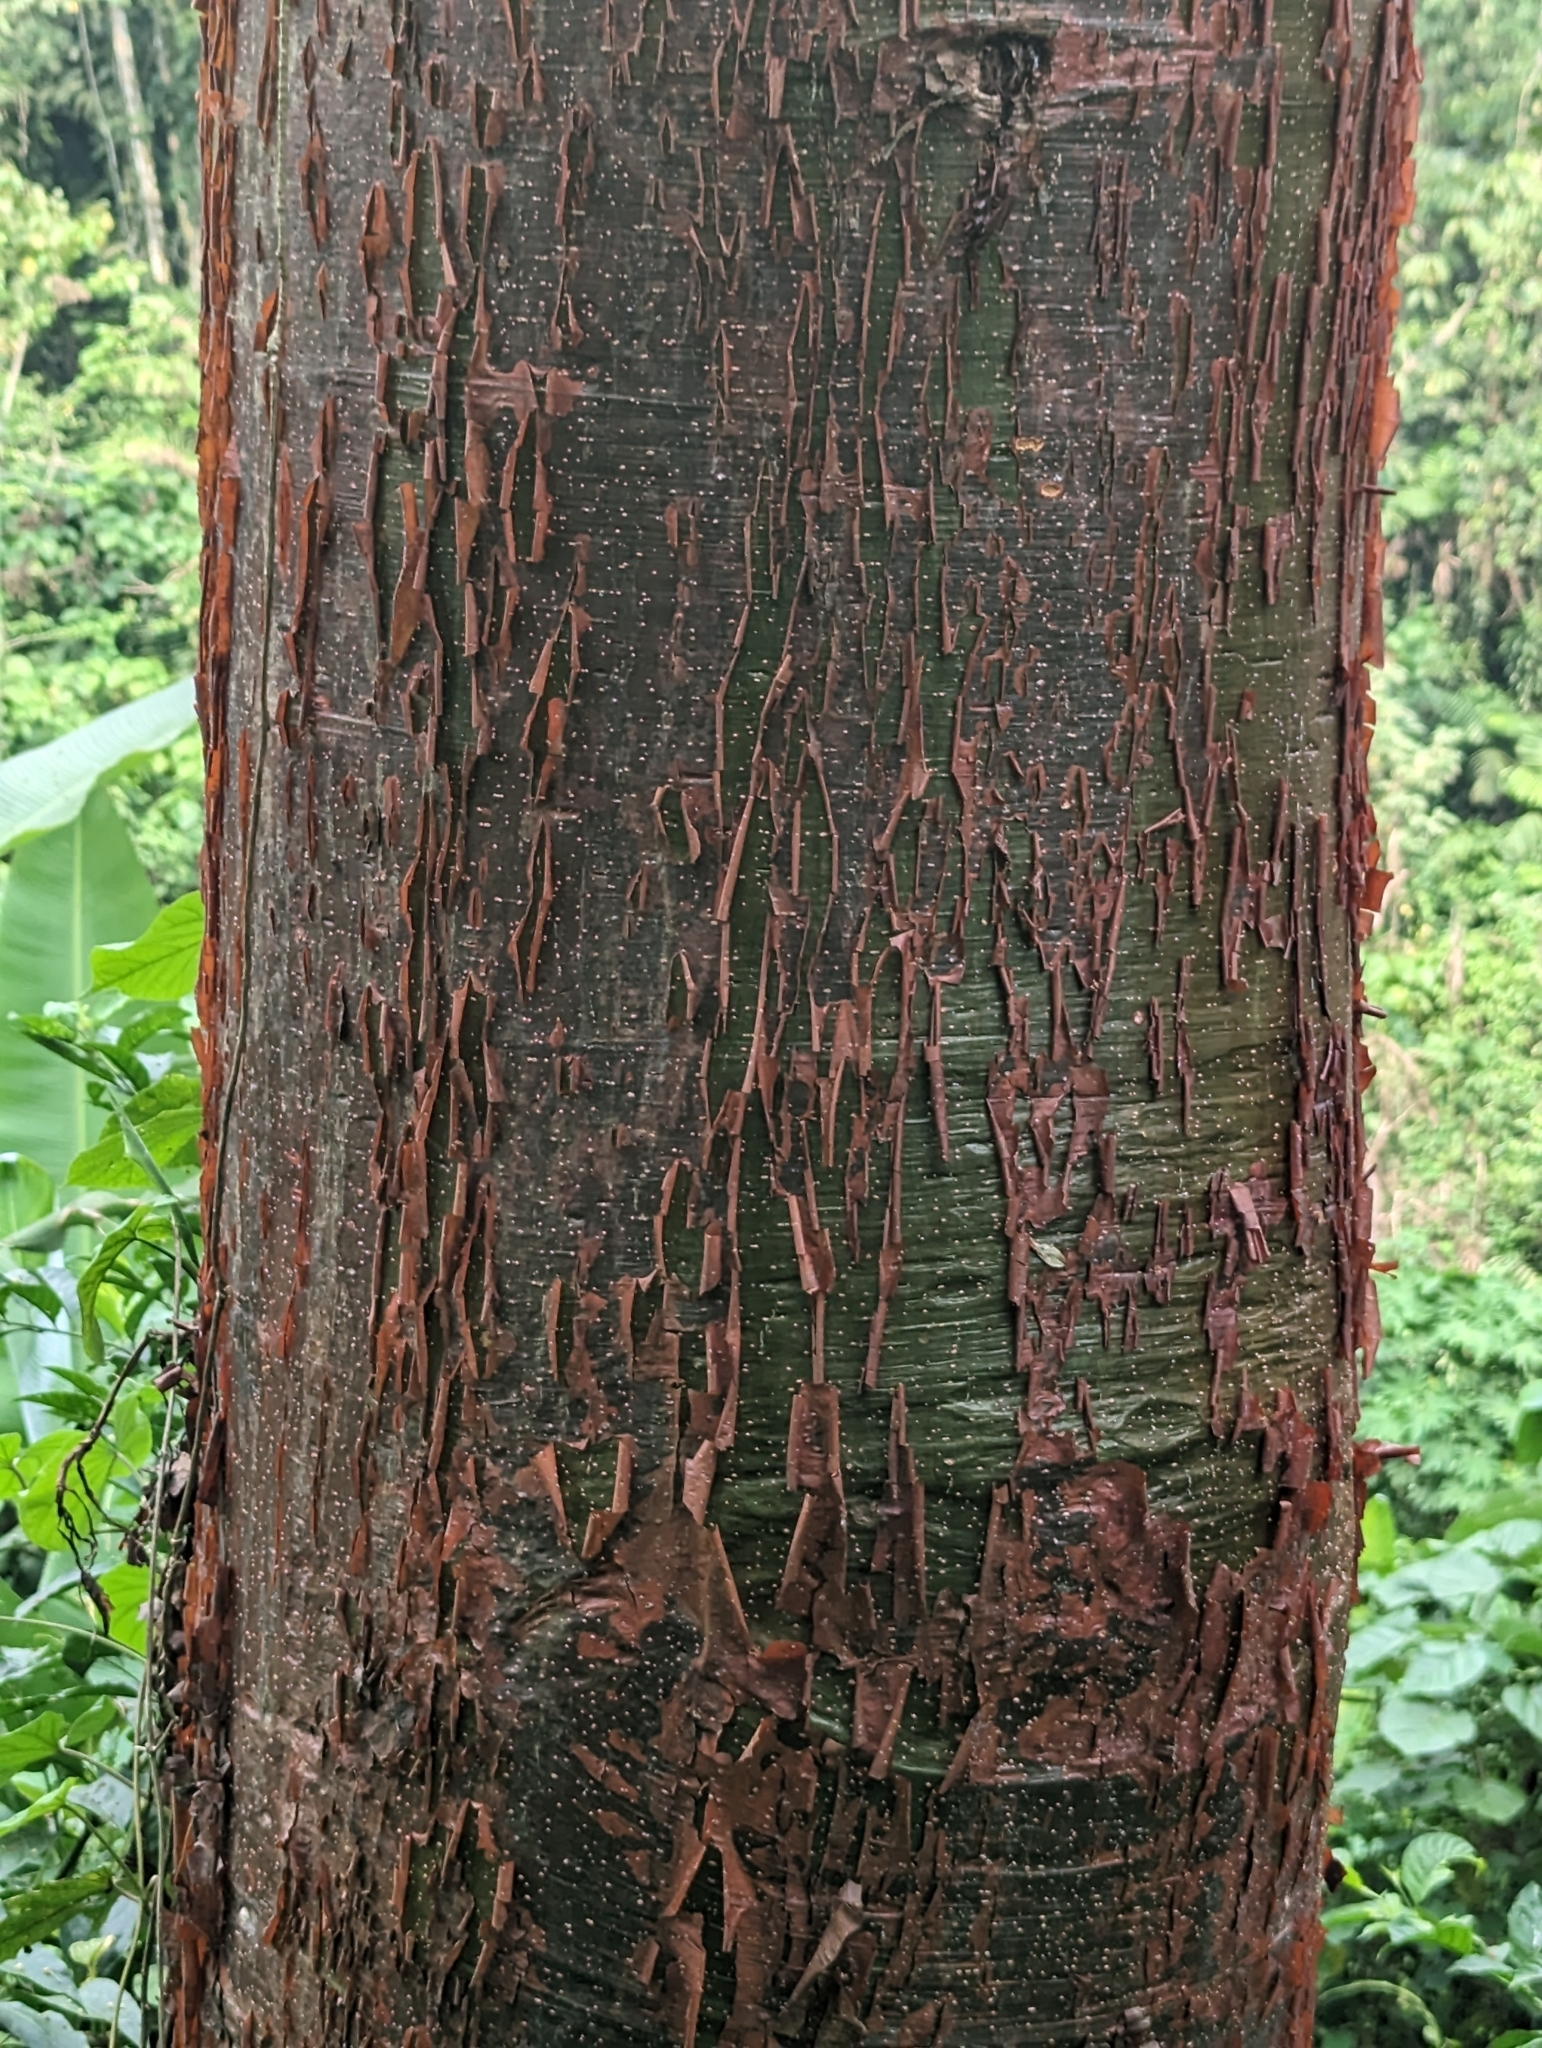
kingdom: Plantae
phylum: Tracheophyta
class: Magnoliopsida
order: Sapindales
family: Burseraceae
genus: Bursera
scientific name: Bursera simaruba
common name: Turpentine tree
